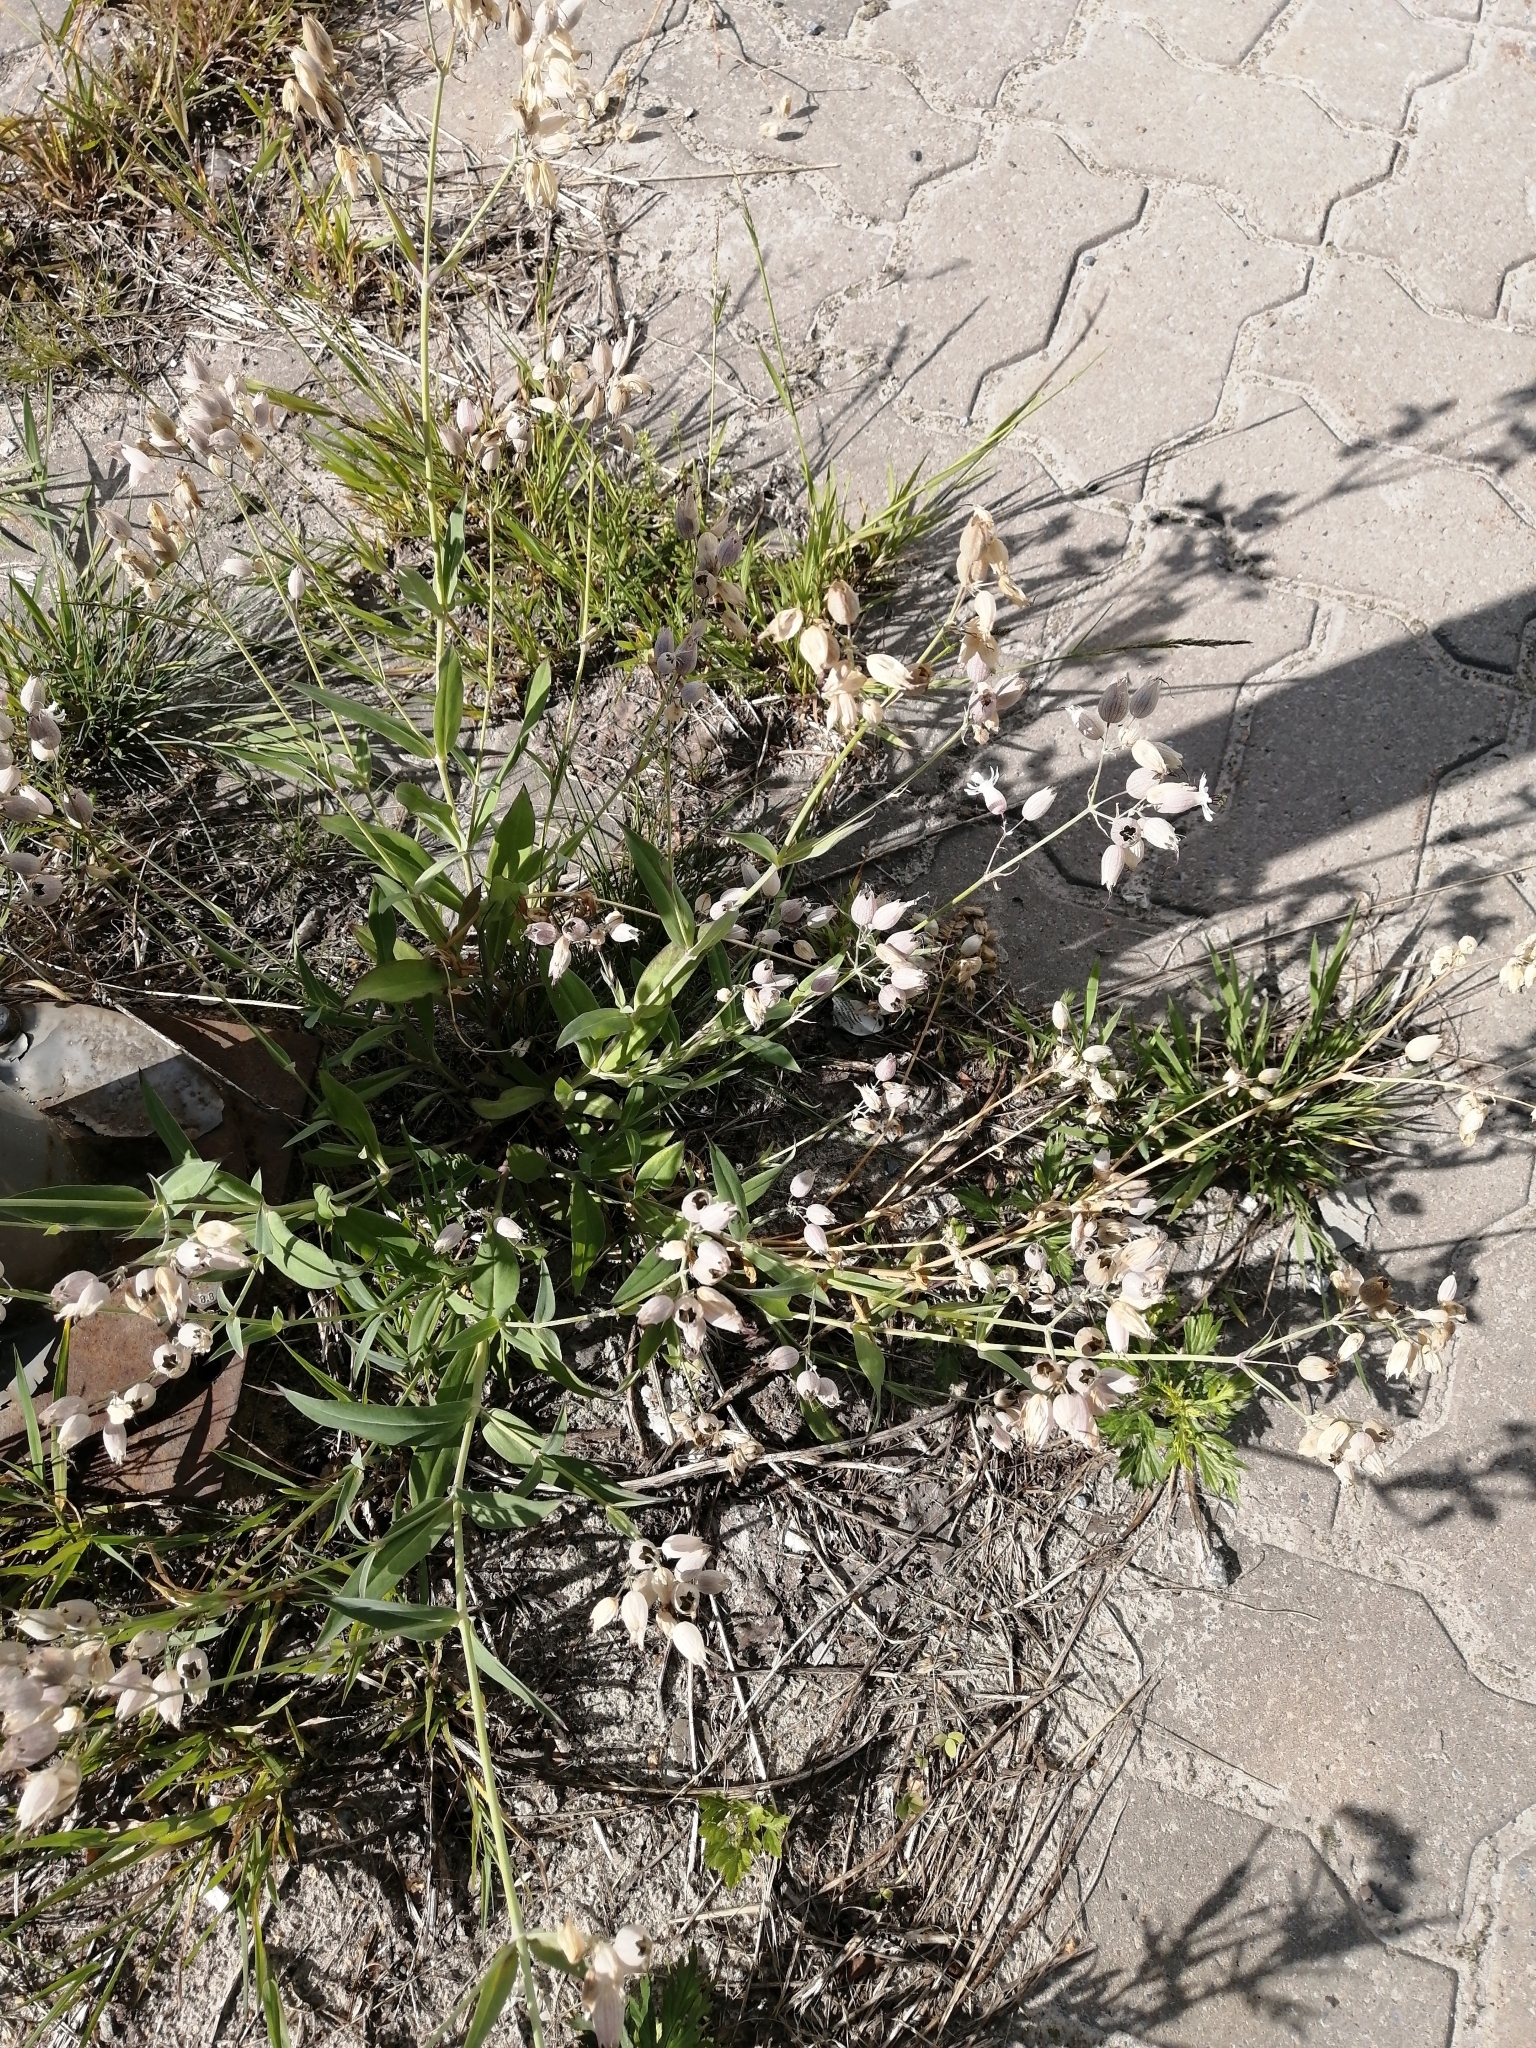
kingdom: Plantae
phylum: Tracheophyta
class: Magnoliopsida
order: Caryophyllales
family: Caryophyllaceae
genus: Silene
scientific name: Silene vulgaris
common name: Bladder campion
